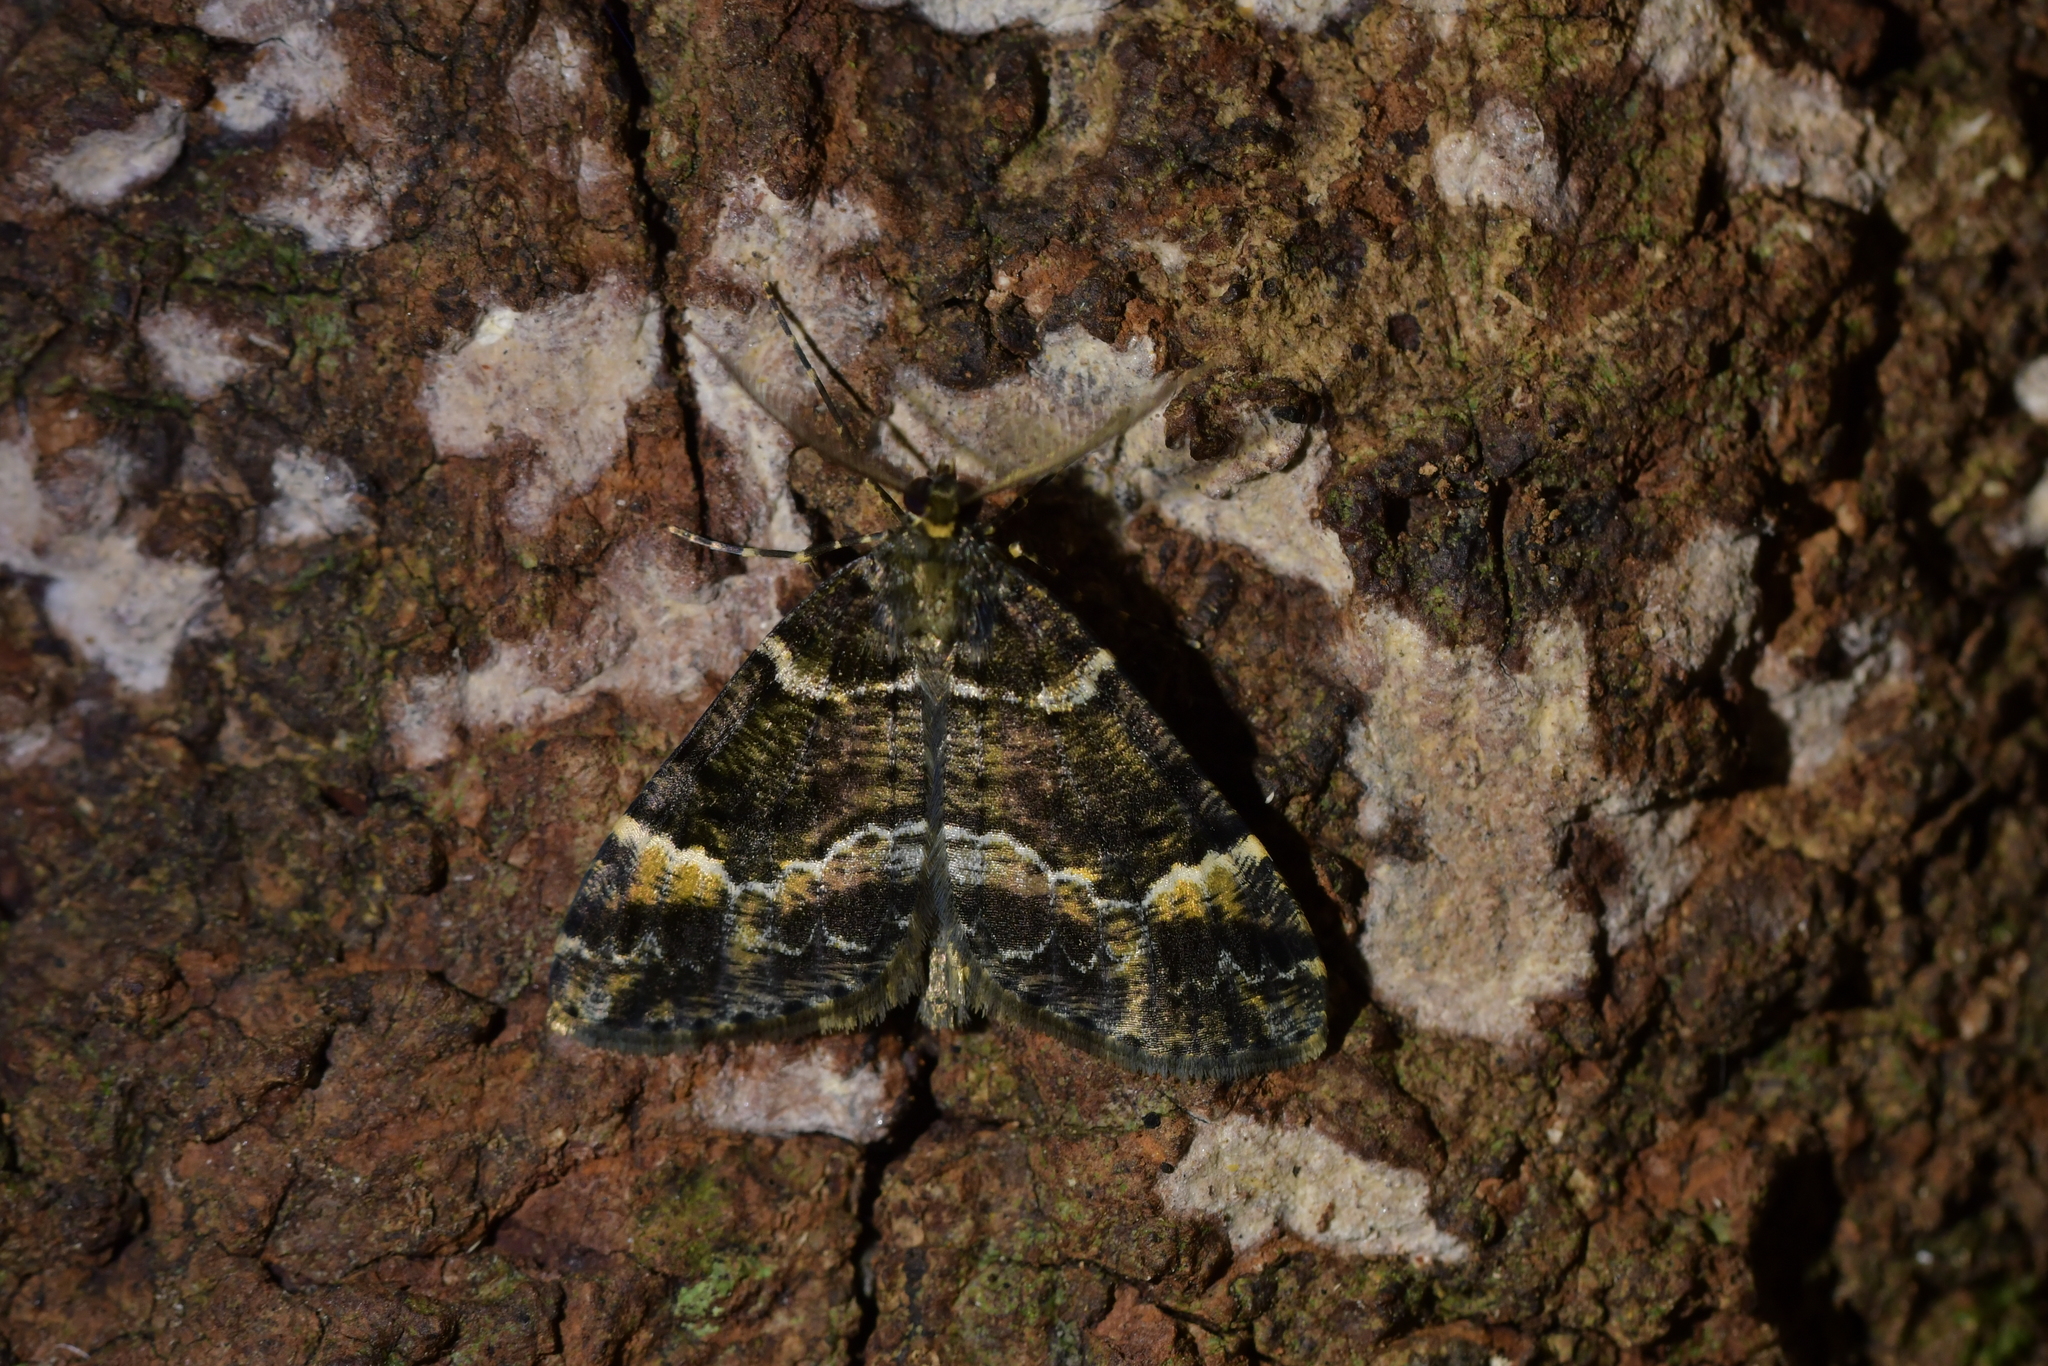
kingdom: Animalia
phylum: Arthropoda
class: Insecta
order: Lepidoptera
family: Geometridae
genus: Pseudocoremia
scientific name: Pseudocoremia productata
